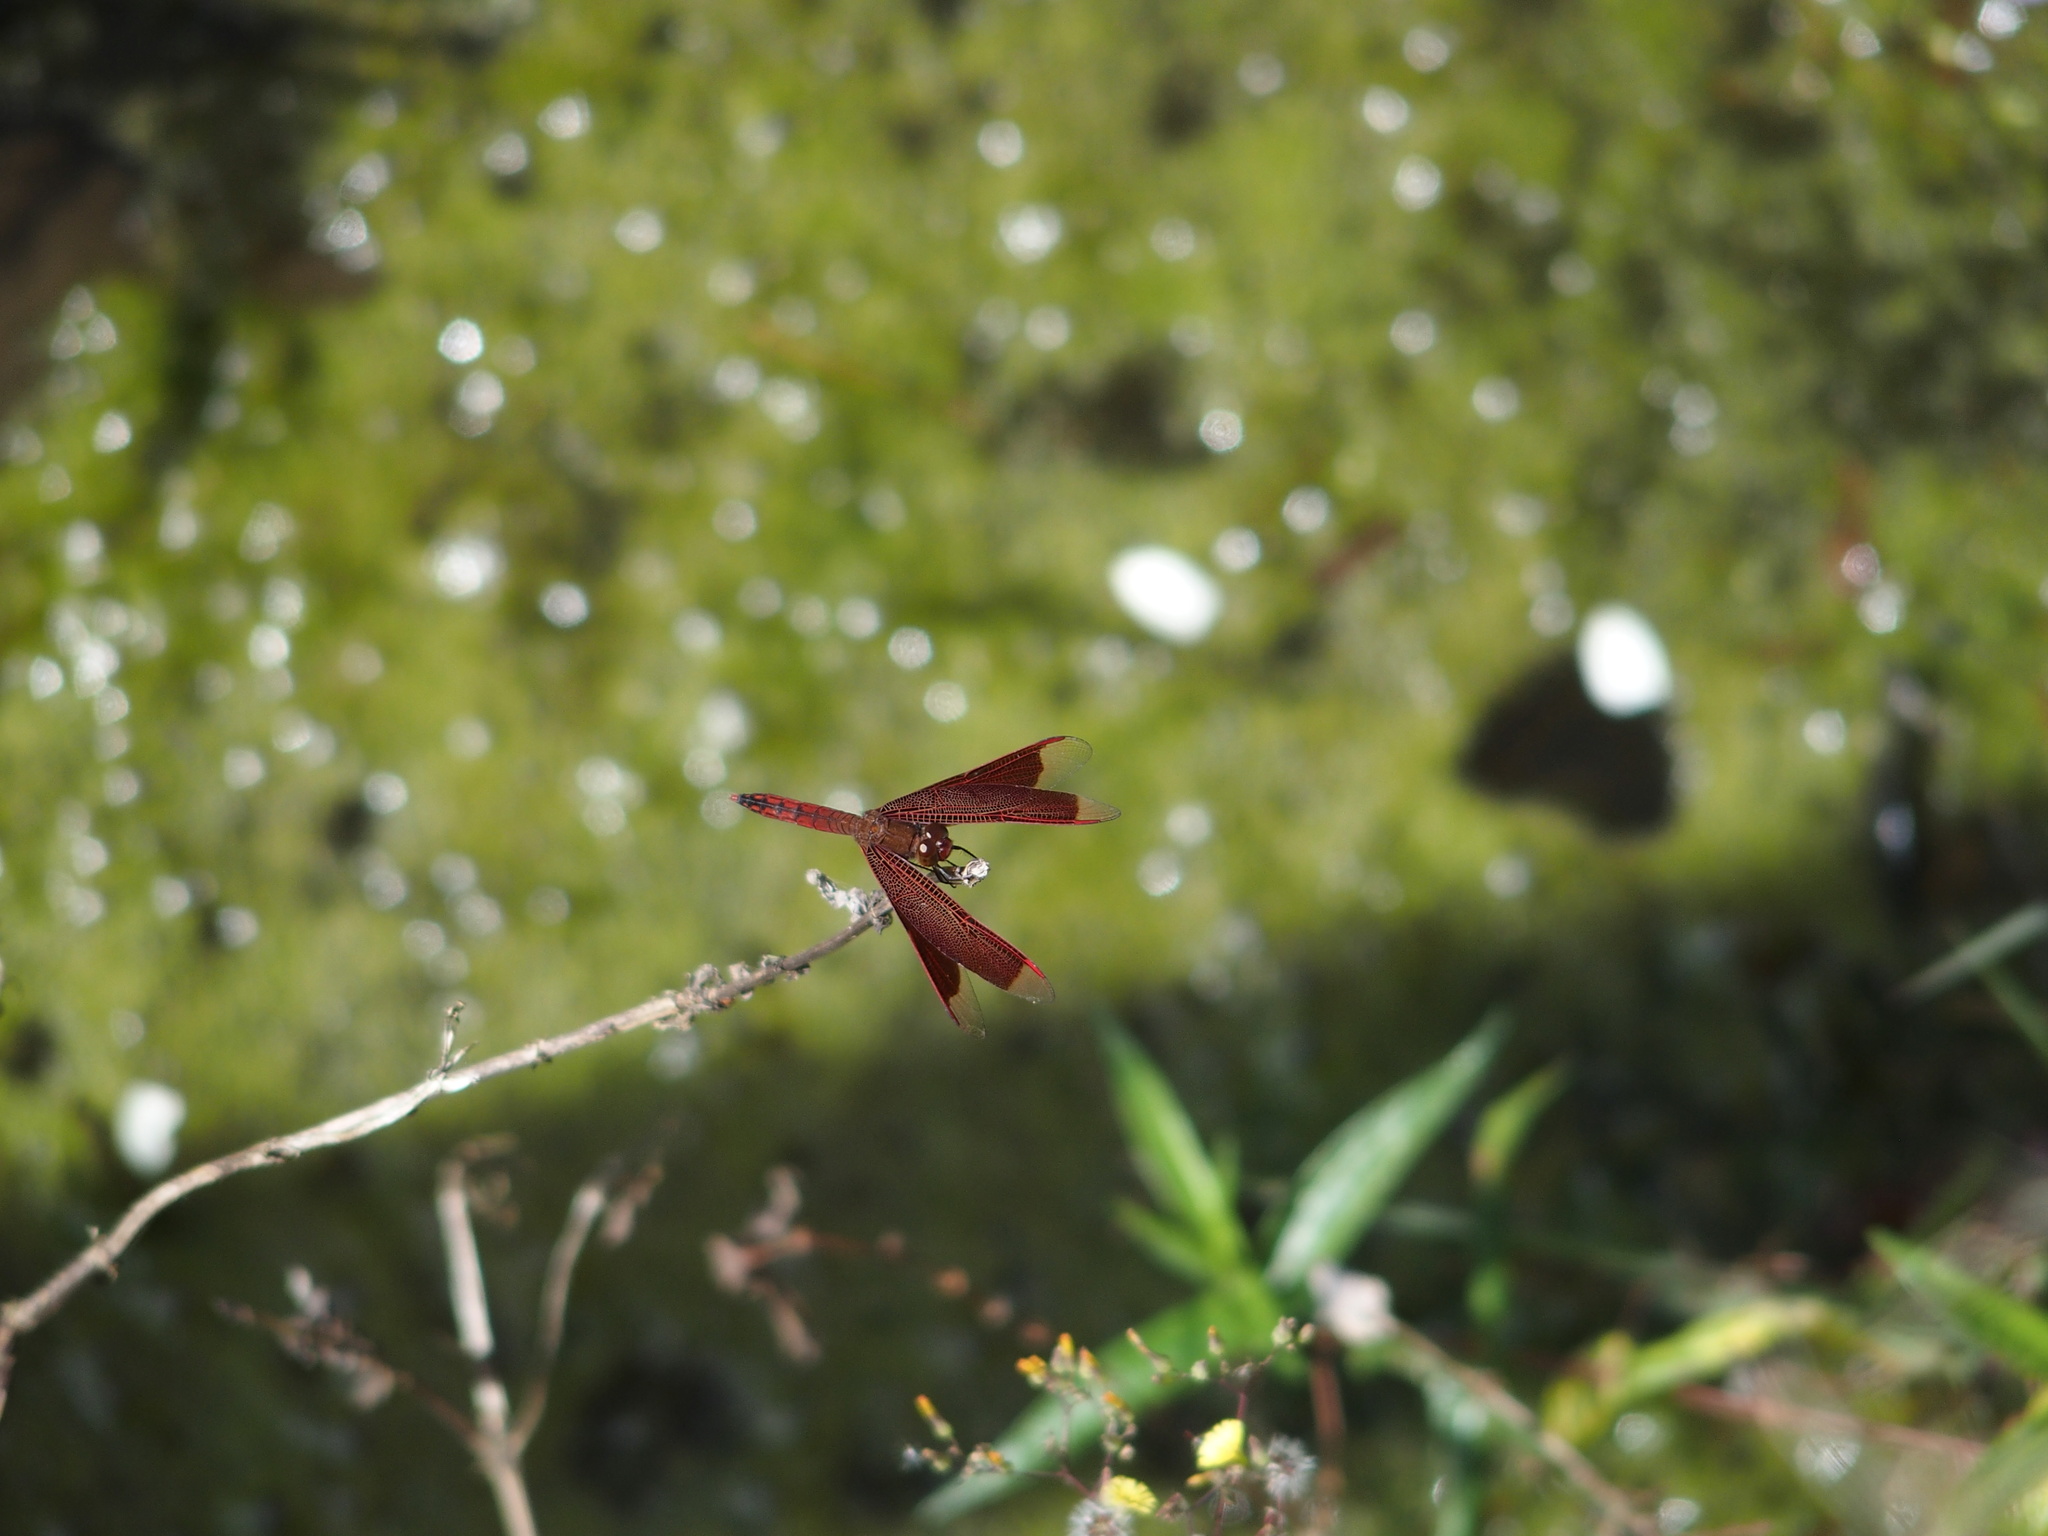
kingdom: Animalia
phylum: Arthropoda
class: Insecta
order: Odonata
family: Libellulidae
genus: Neurothemis
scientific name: Neurothemis taiwanensis
